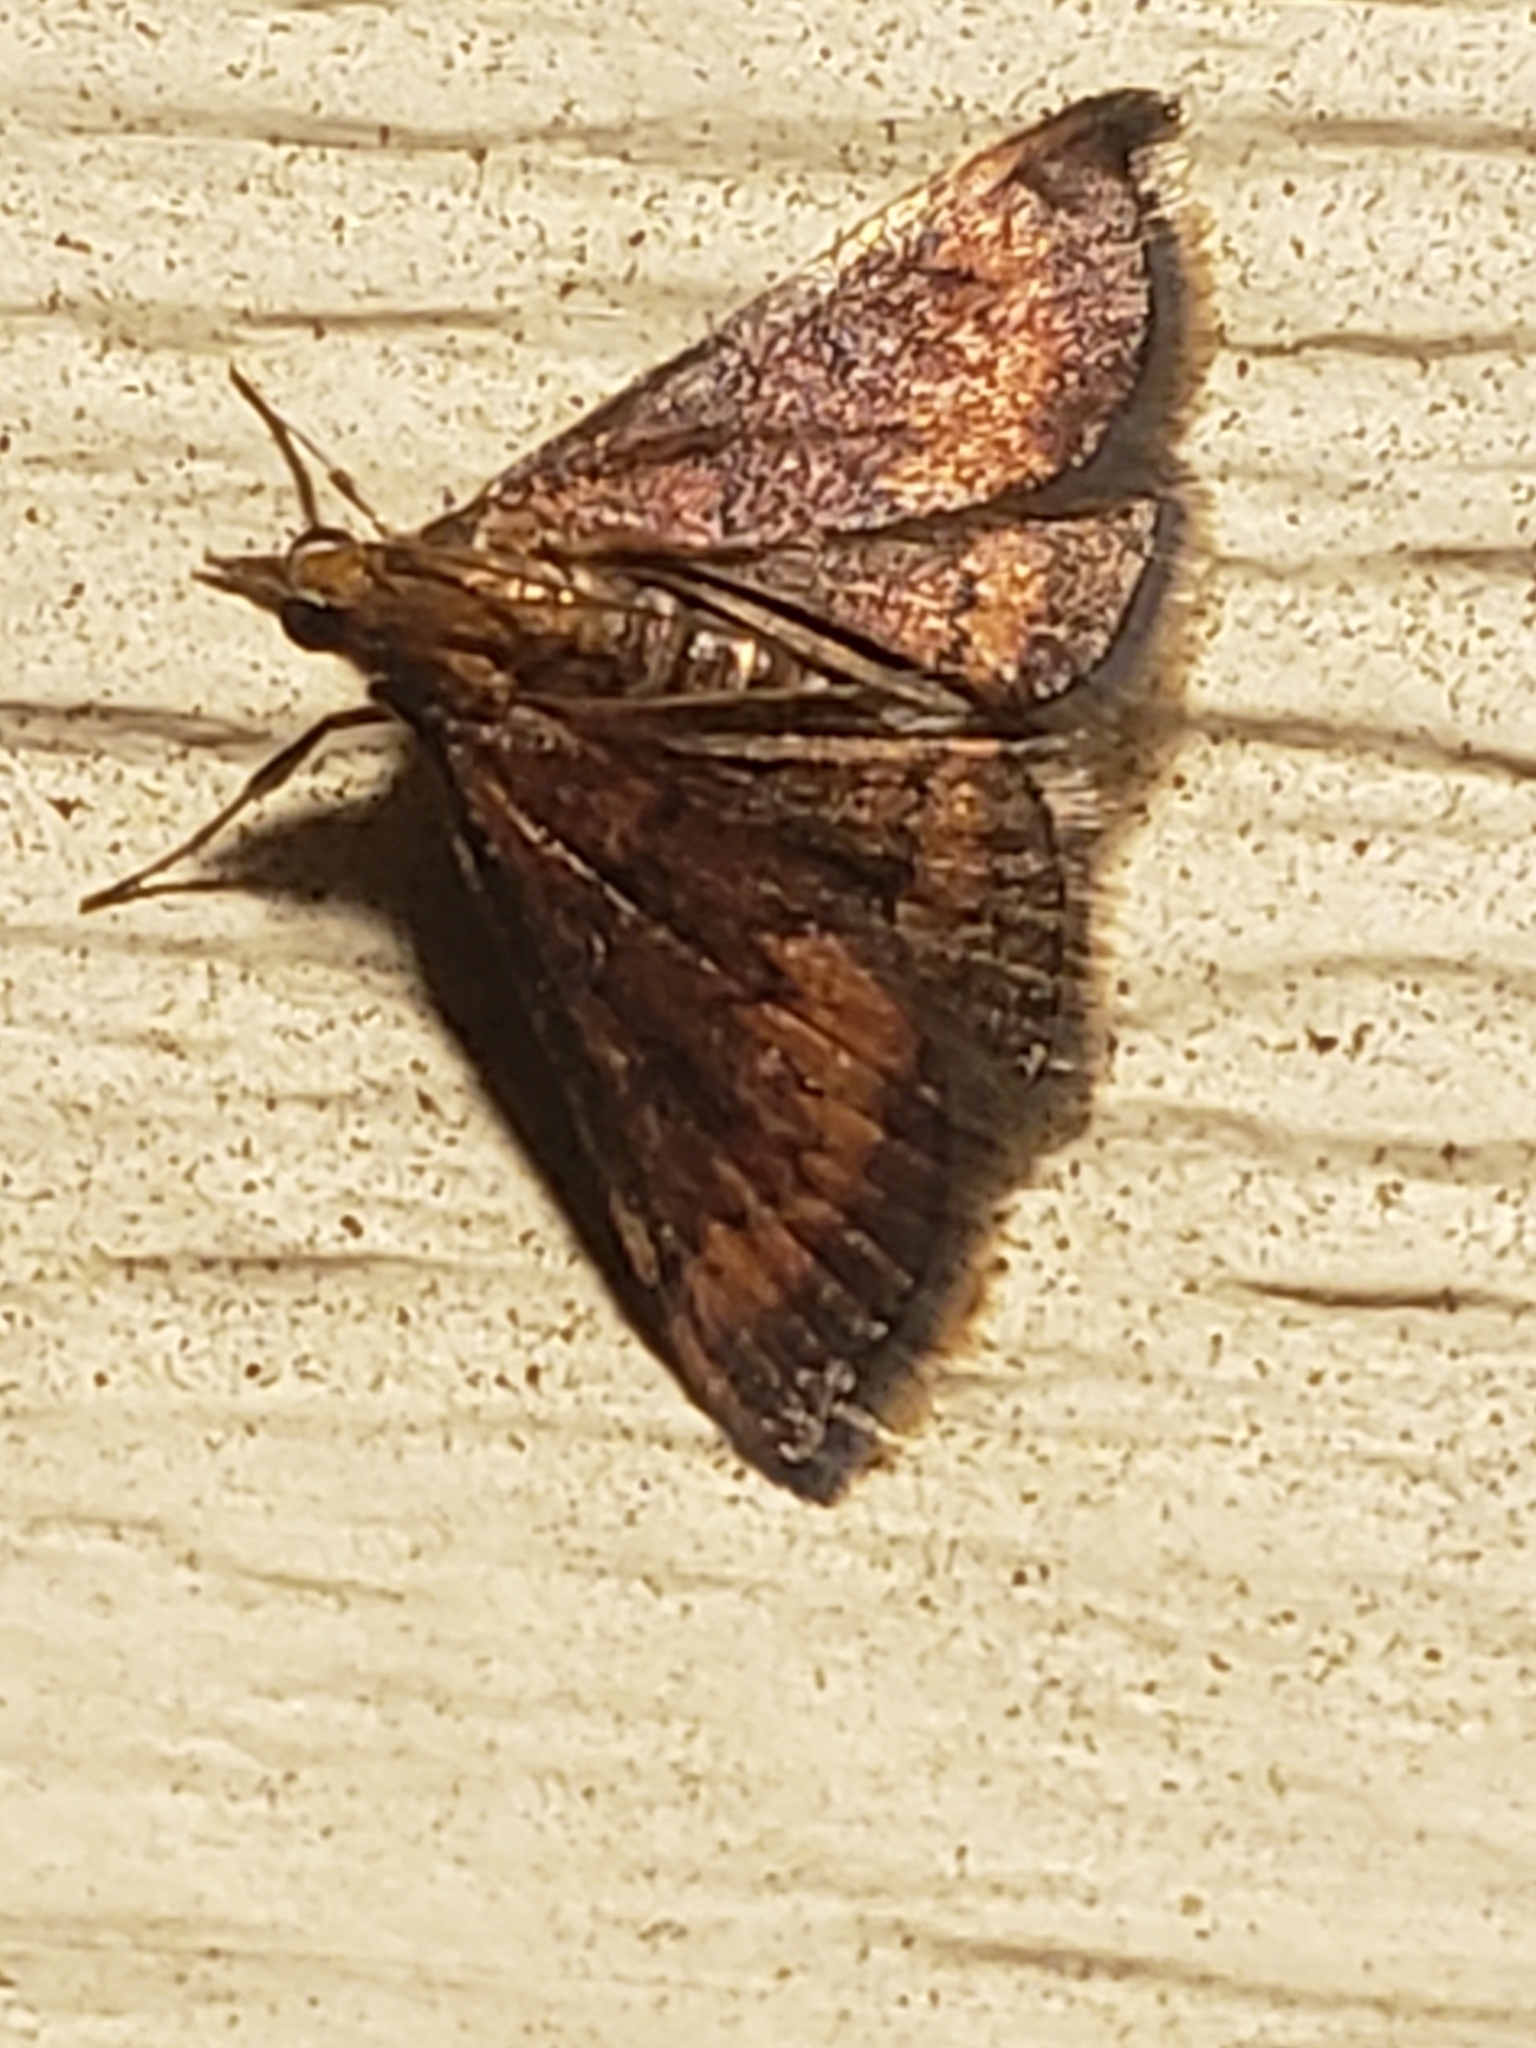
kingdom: Animalia
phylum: Arthropoda
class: Insecta
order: Lepidoptera
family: Crambidae
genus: Pyrausta
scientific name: Pyrausta rubricalis
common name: Variable reddish pyrausta
